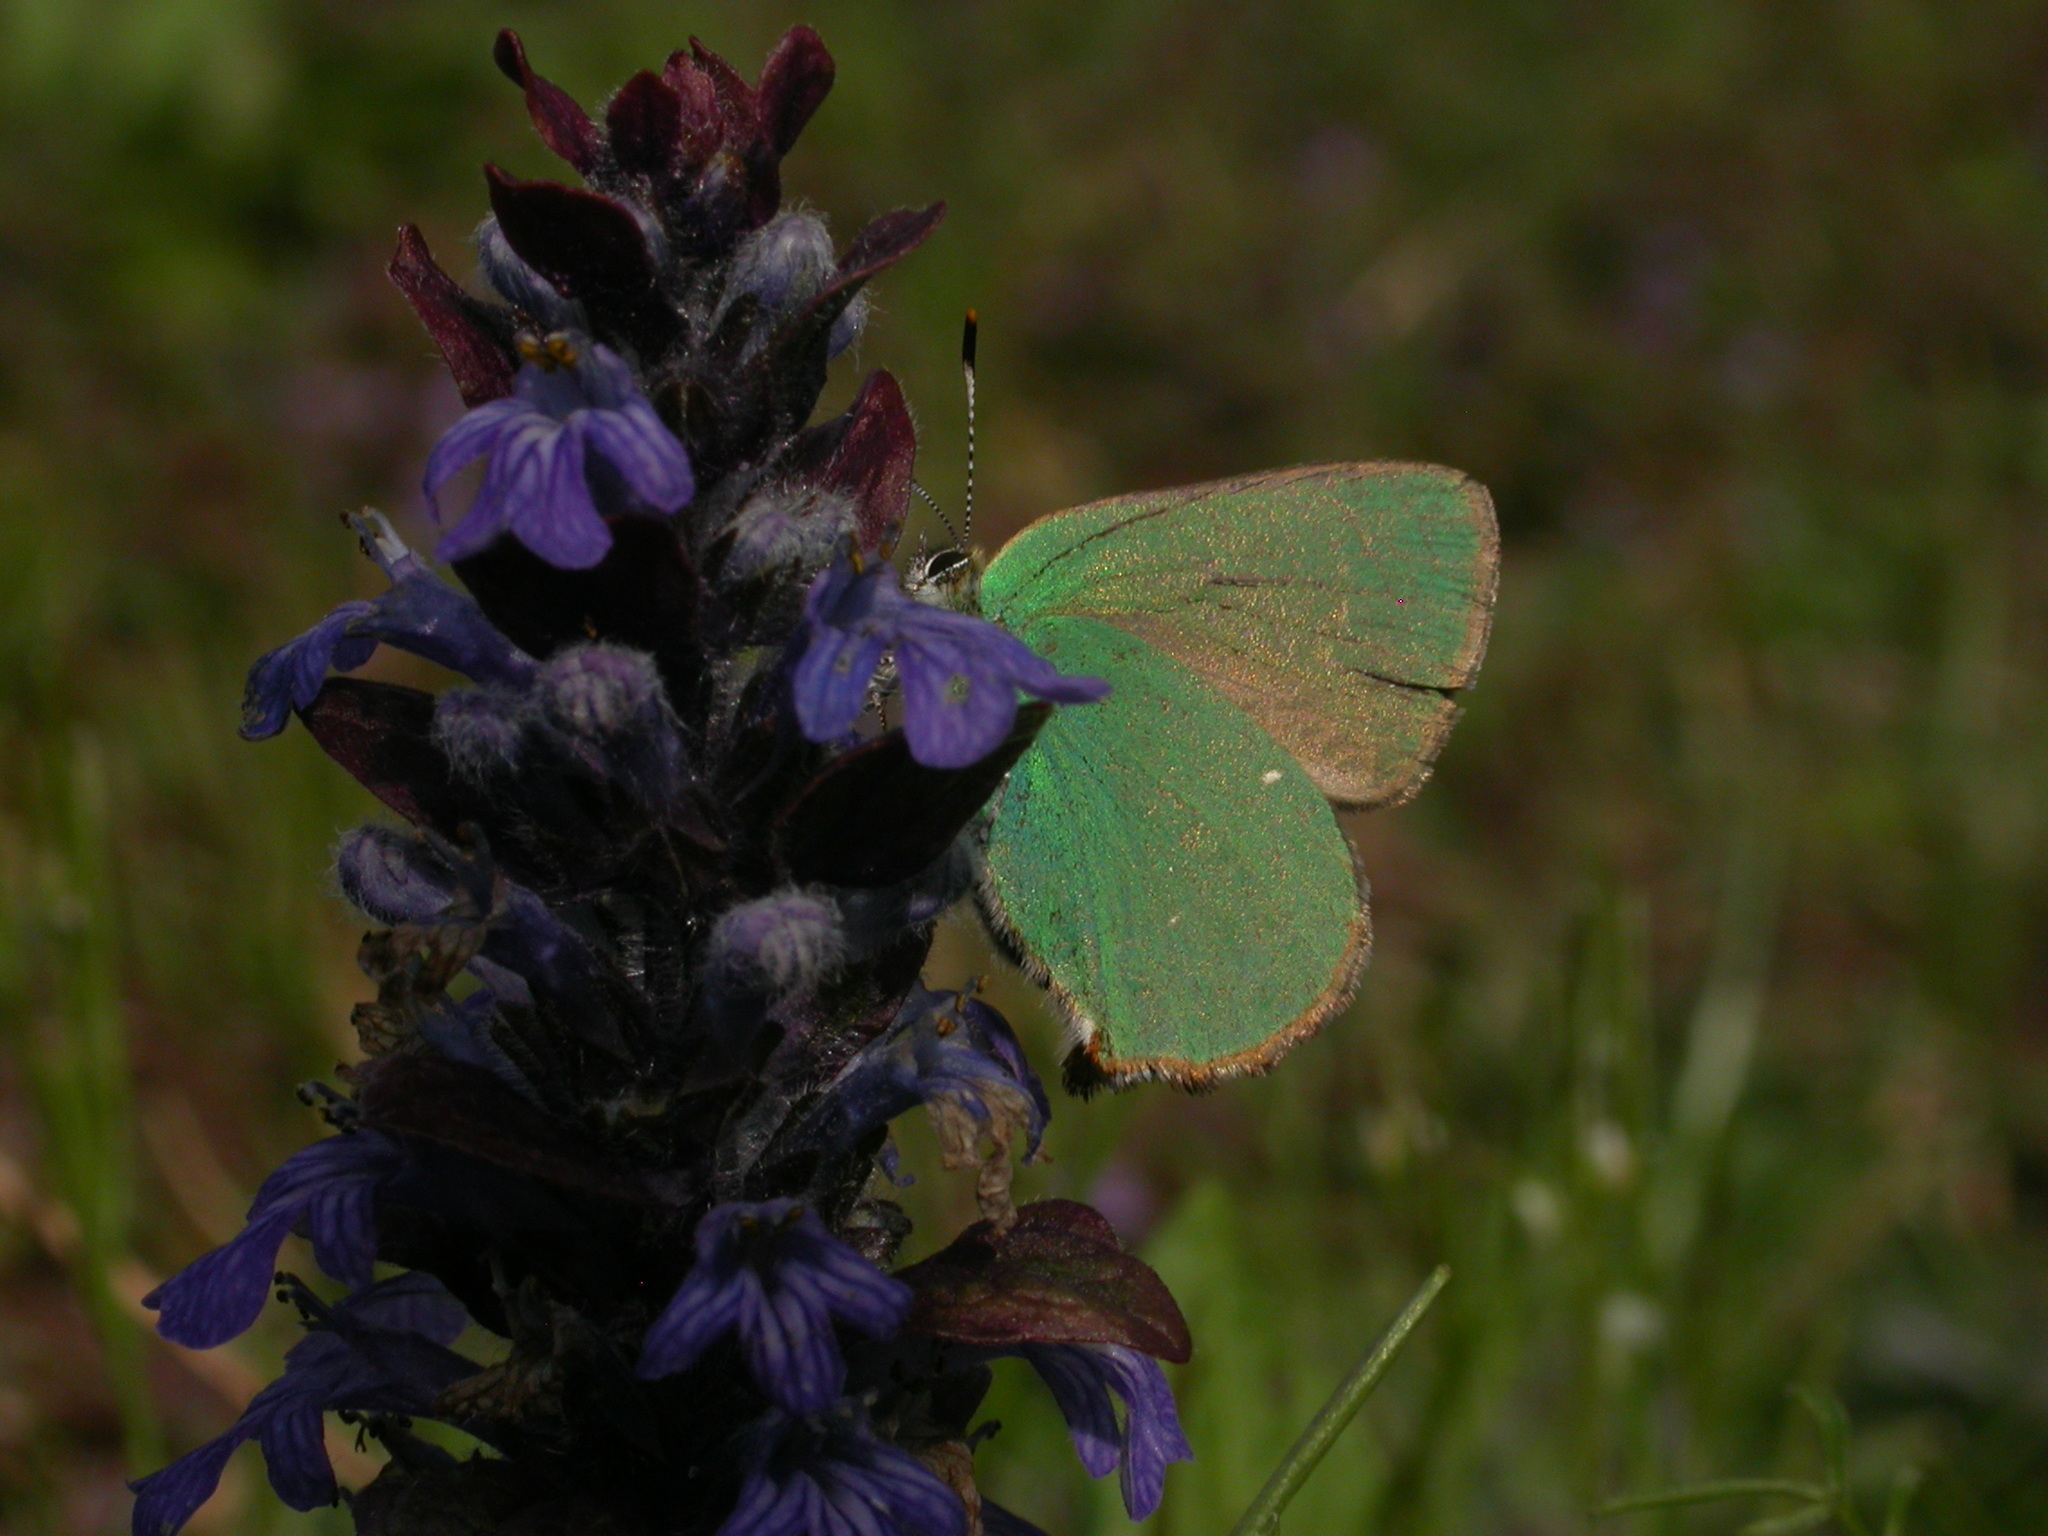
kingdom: Animalia
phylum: Arthropoda
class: Insecta
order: Lepidoptera
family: Lycaenidae
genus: Callophrys
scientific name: Callophrys rubi
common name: Green hairstreak
